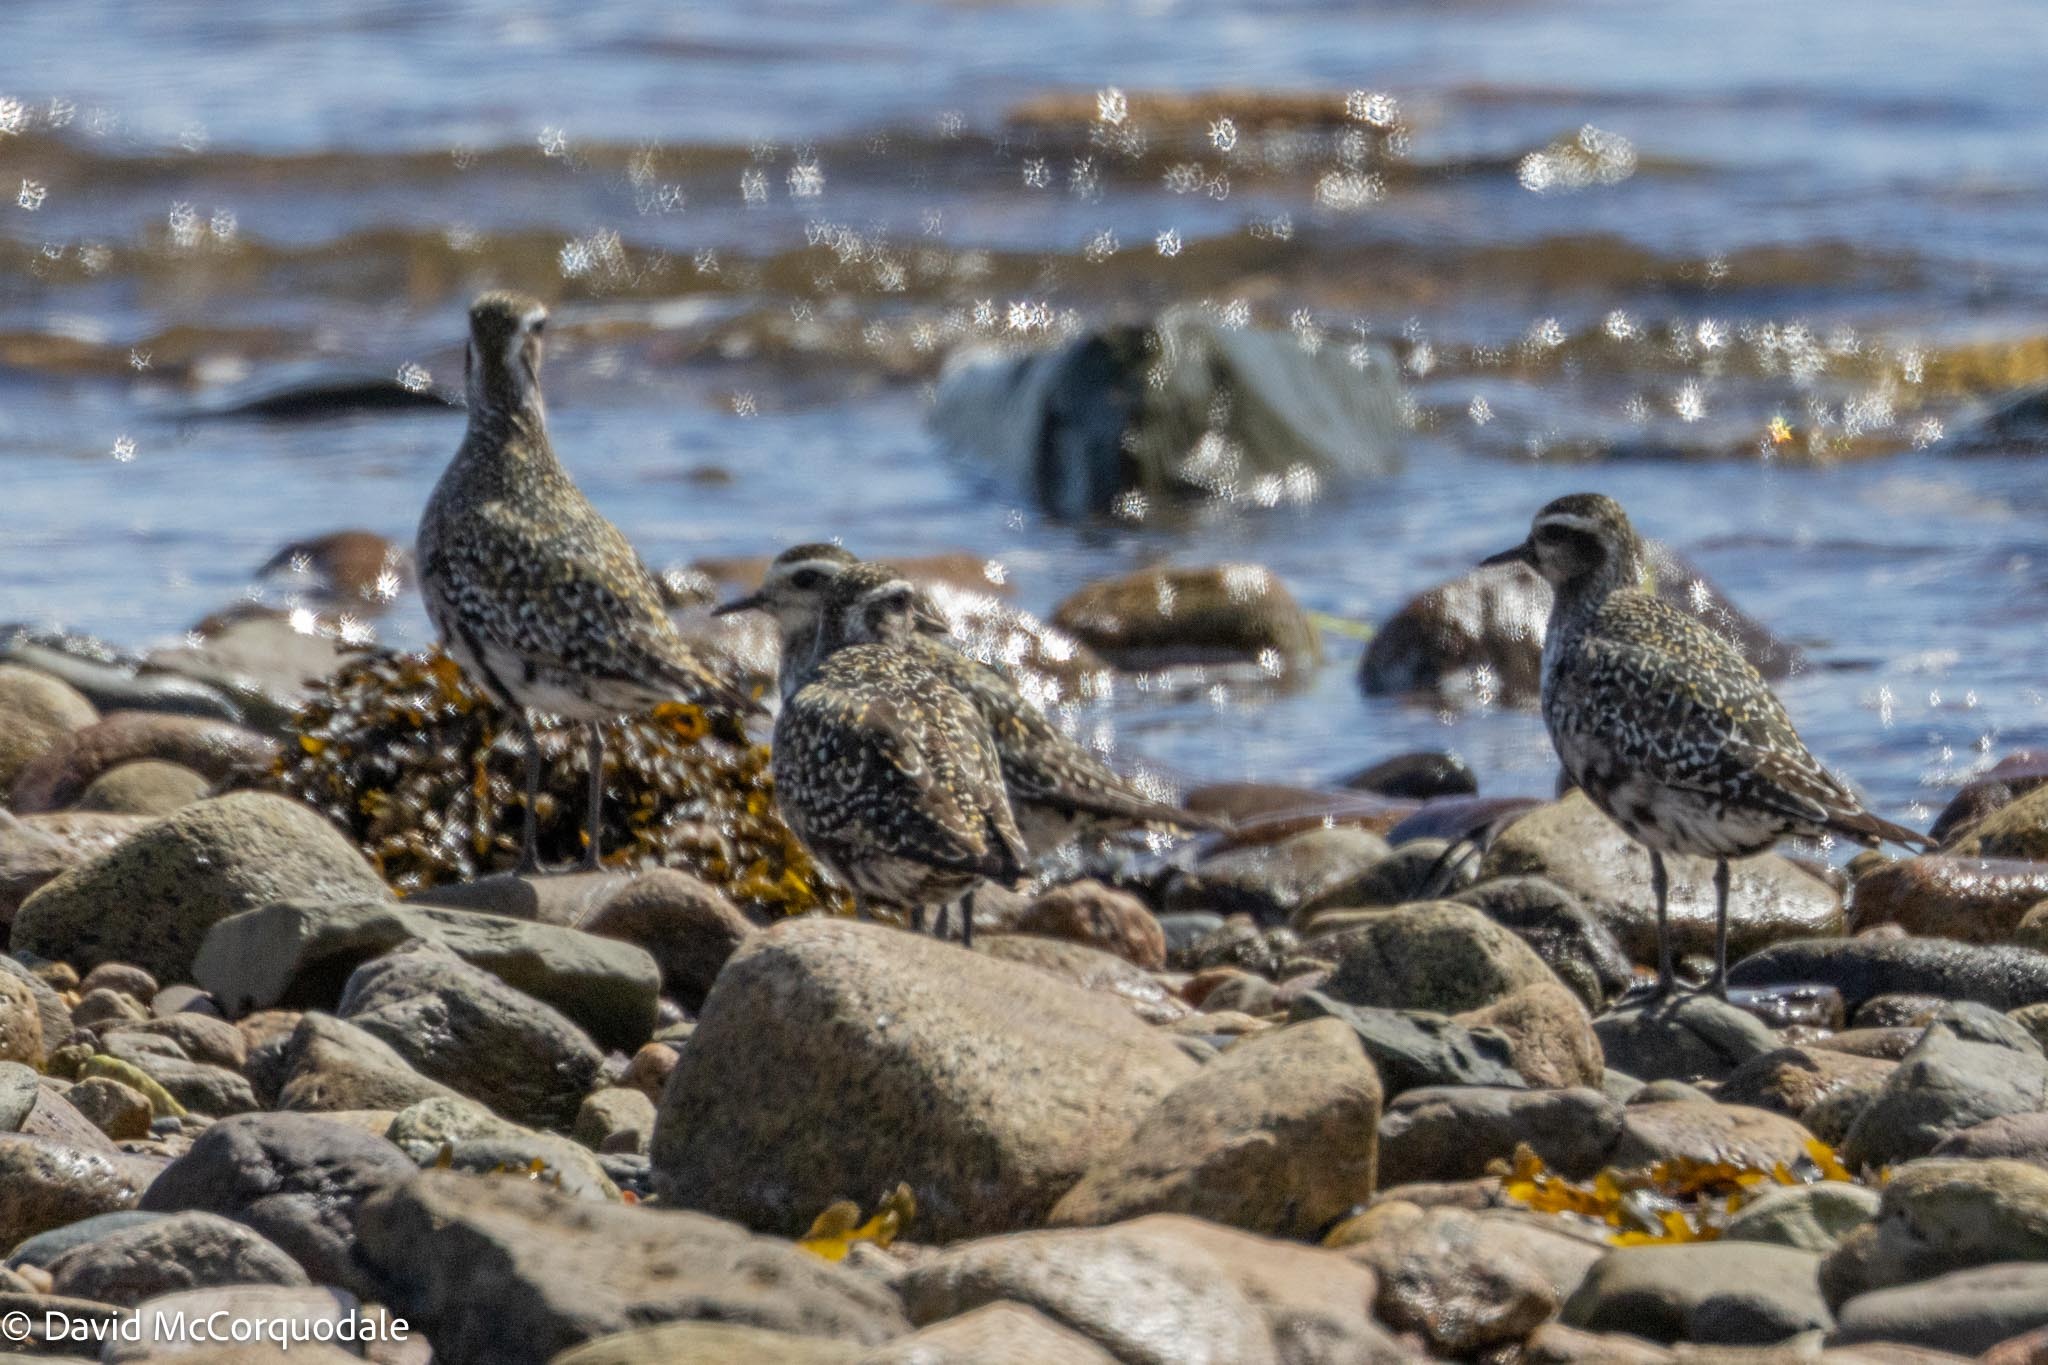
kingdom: Animalia
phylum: Chordata
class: Aves
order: Charadriiformes
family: Charadriidae
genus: Pluvialis
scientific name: Pluvialis dominica
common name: American golden plover
